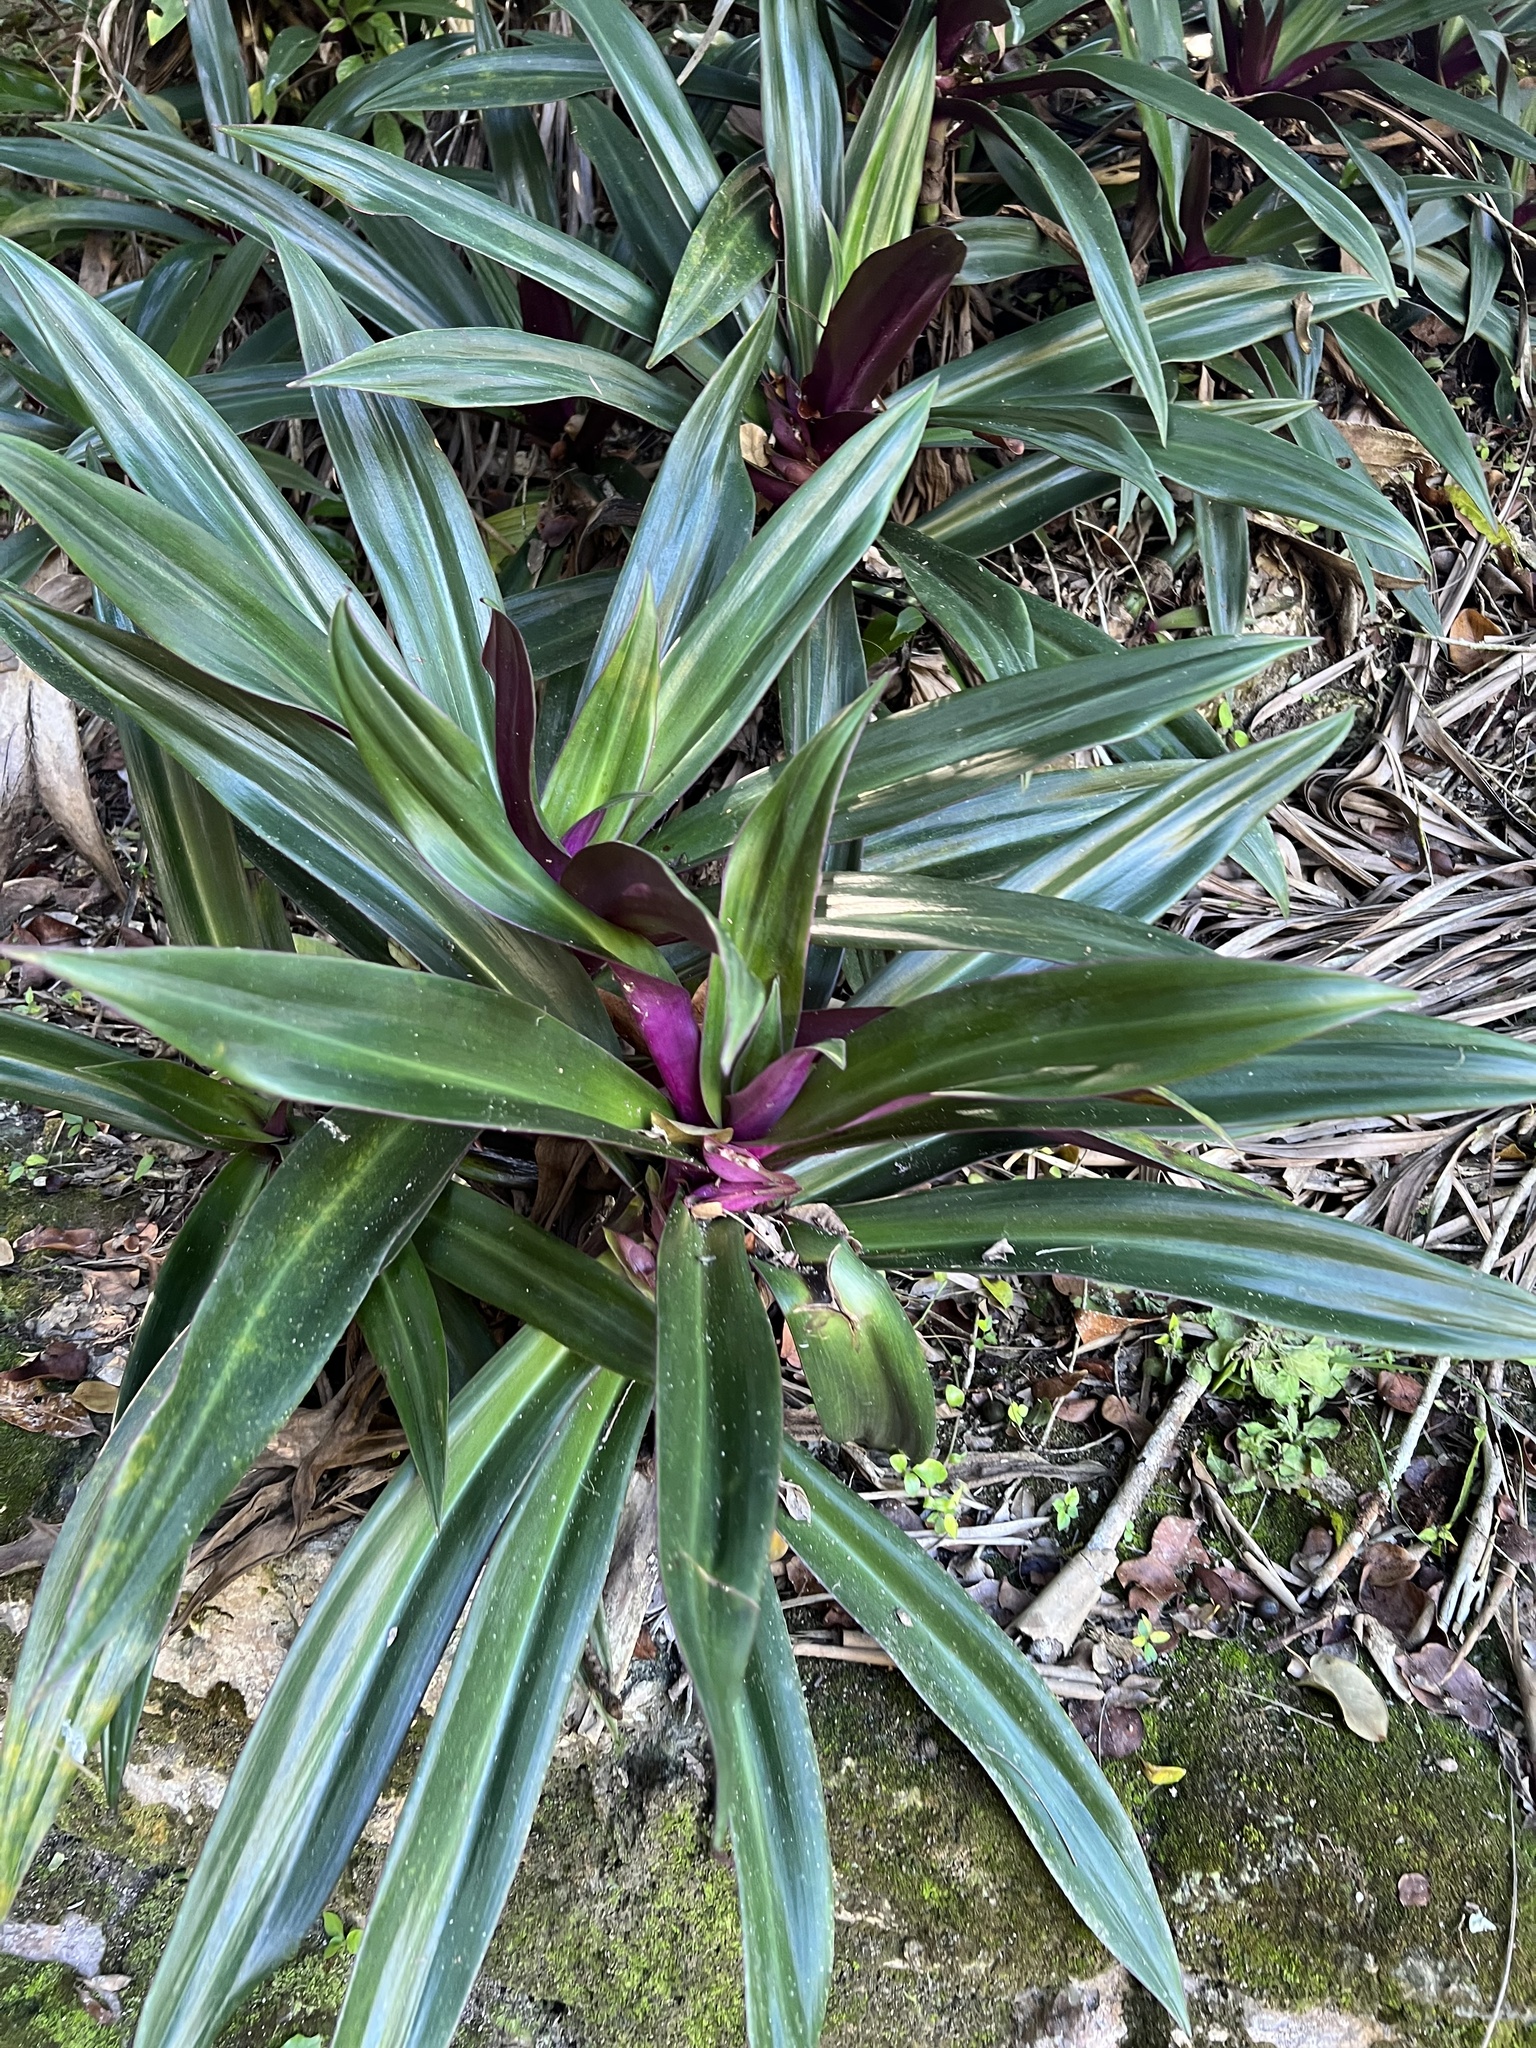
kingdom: Plantae
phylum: Tracheophyta
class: Liliopsida
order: Commelinales
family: Commelinaceae
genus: Tradescantia
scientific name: Tradescantia spathacea
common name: Boatlily
